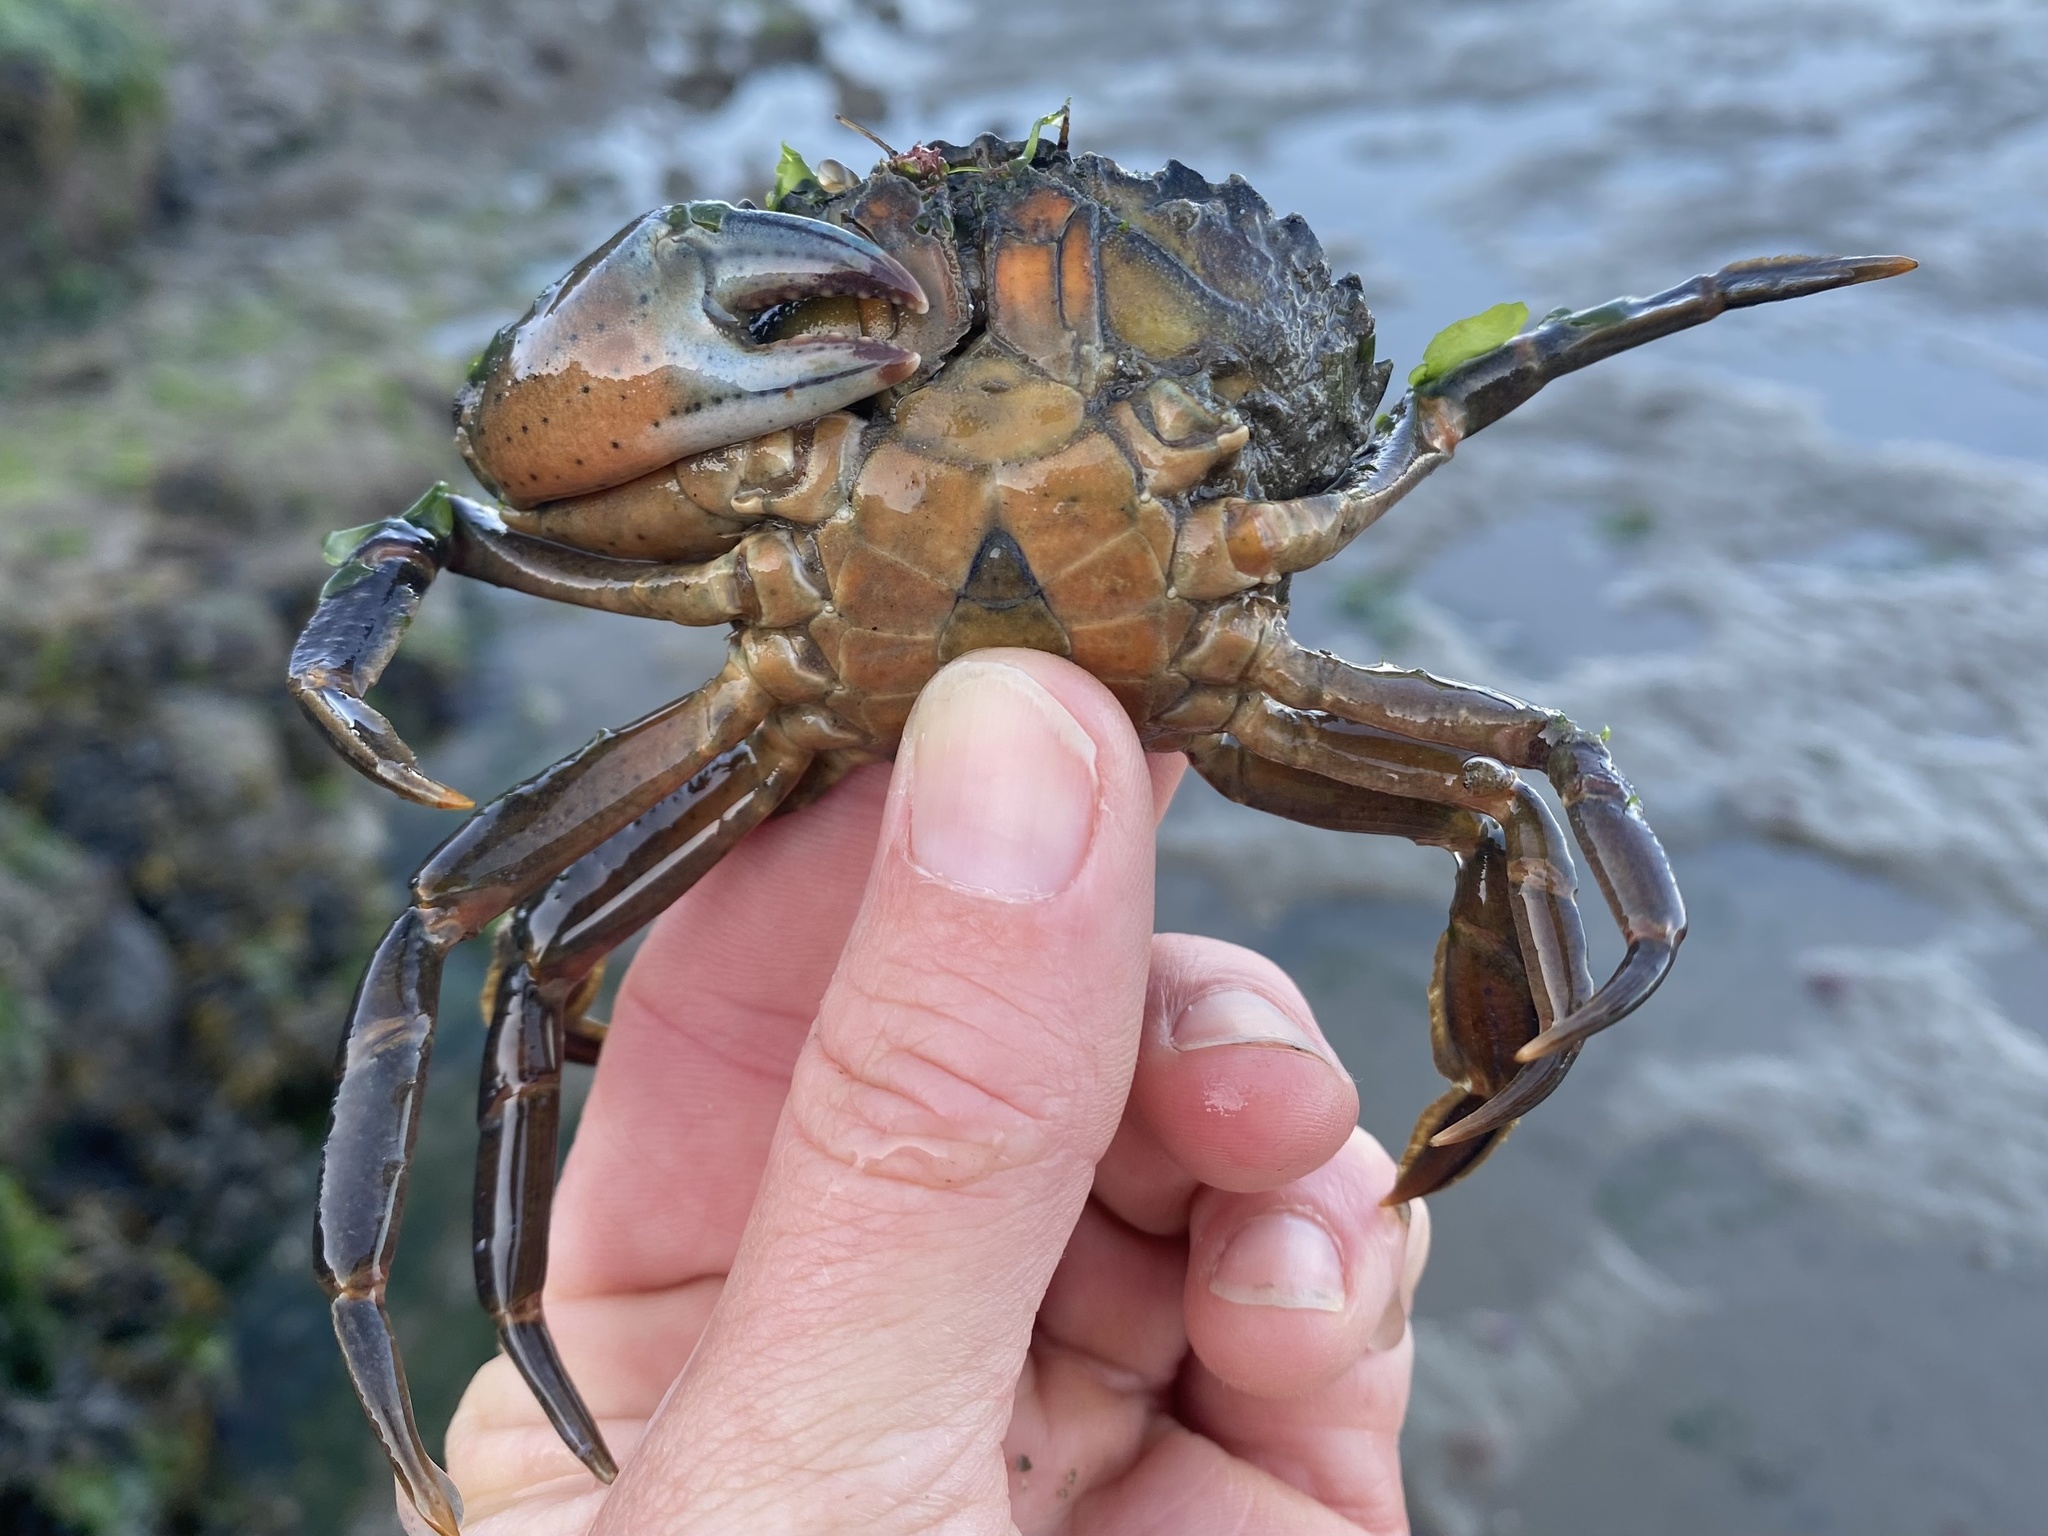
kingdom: Animalia
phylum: Arthropoda
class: Malacostraca
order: Decapoda
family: Carcinidae
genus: Carcinus
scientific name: Carcinus maenas
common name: European green crab
